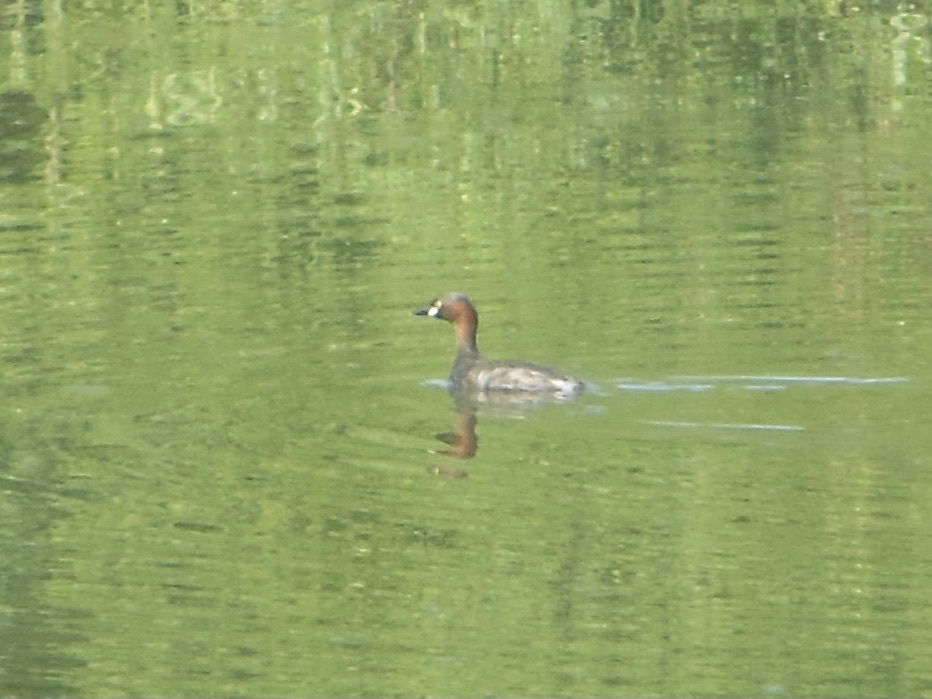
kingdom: Animalia
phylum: Chordata
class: Aves
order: Podicipediformes
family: Podicipedidae
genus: Tachybaptus
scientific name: Tachybaptus ruficollis
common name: Little grebe
